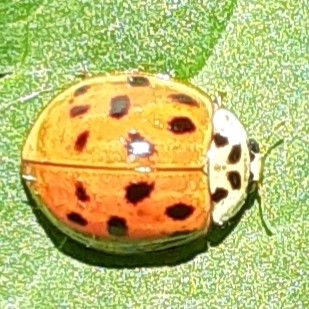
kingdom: Animalia
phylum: Arthropoda
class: Insecta
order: Coleoptera
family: Coccinellidae
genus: Harmonia
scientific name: Harmonia axyridis
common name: Harlequin ladybird
